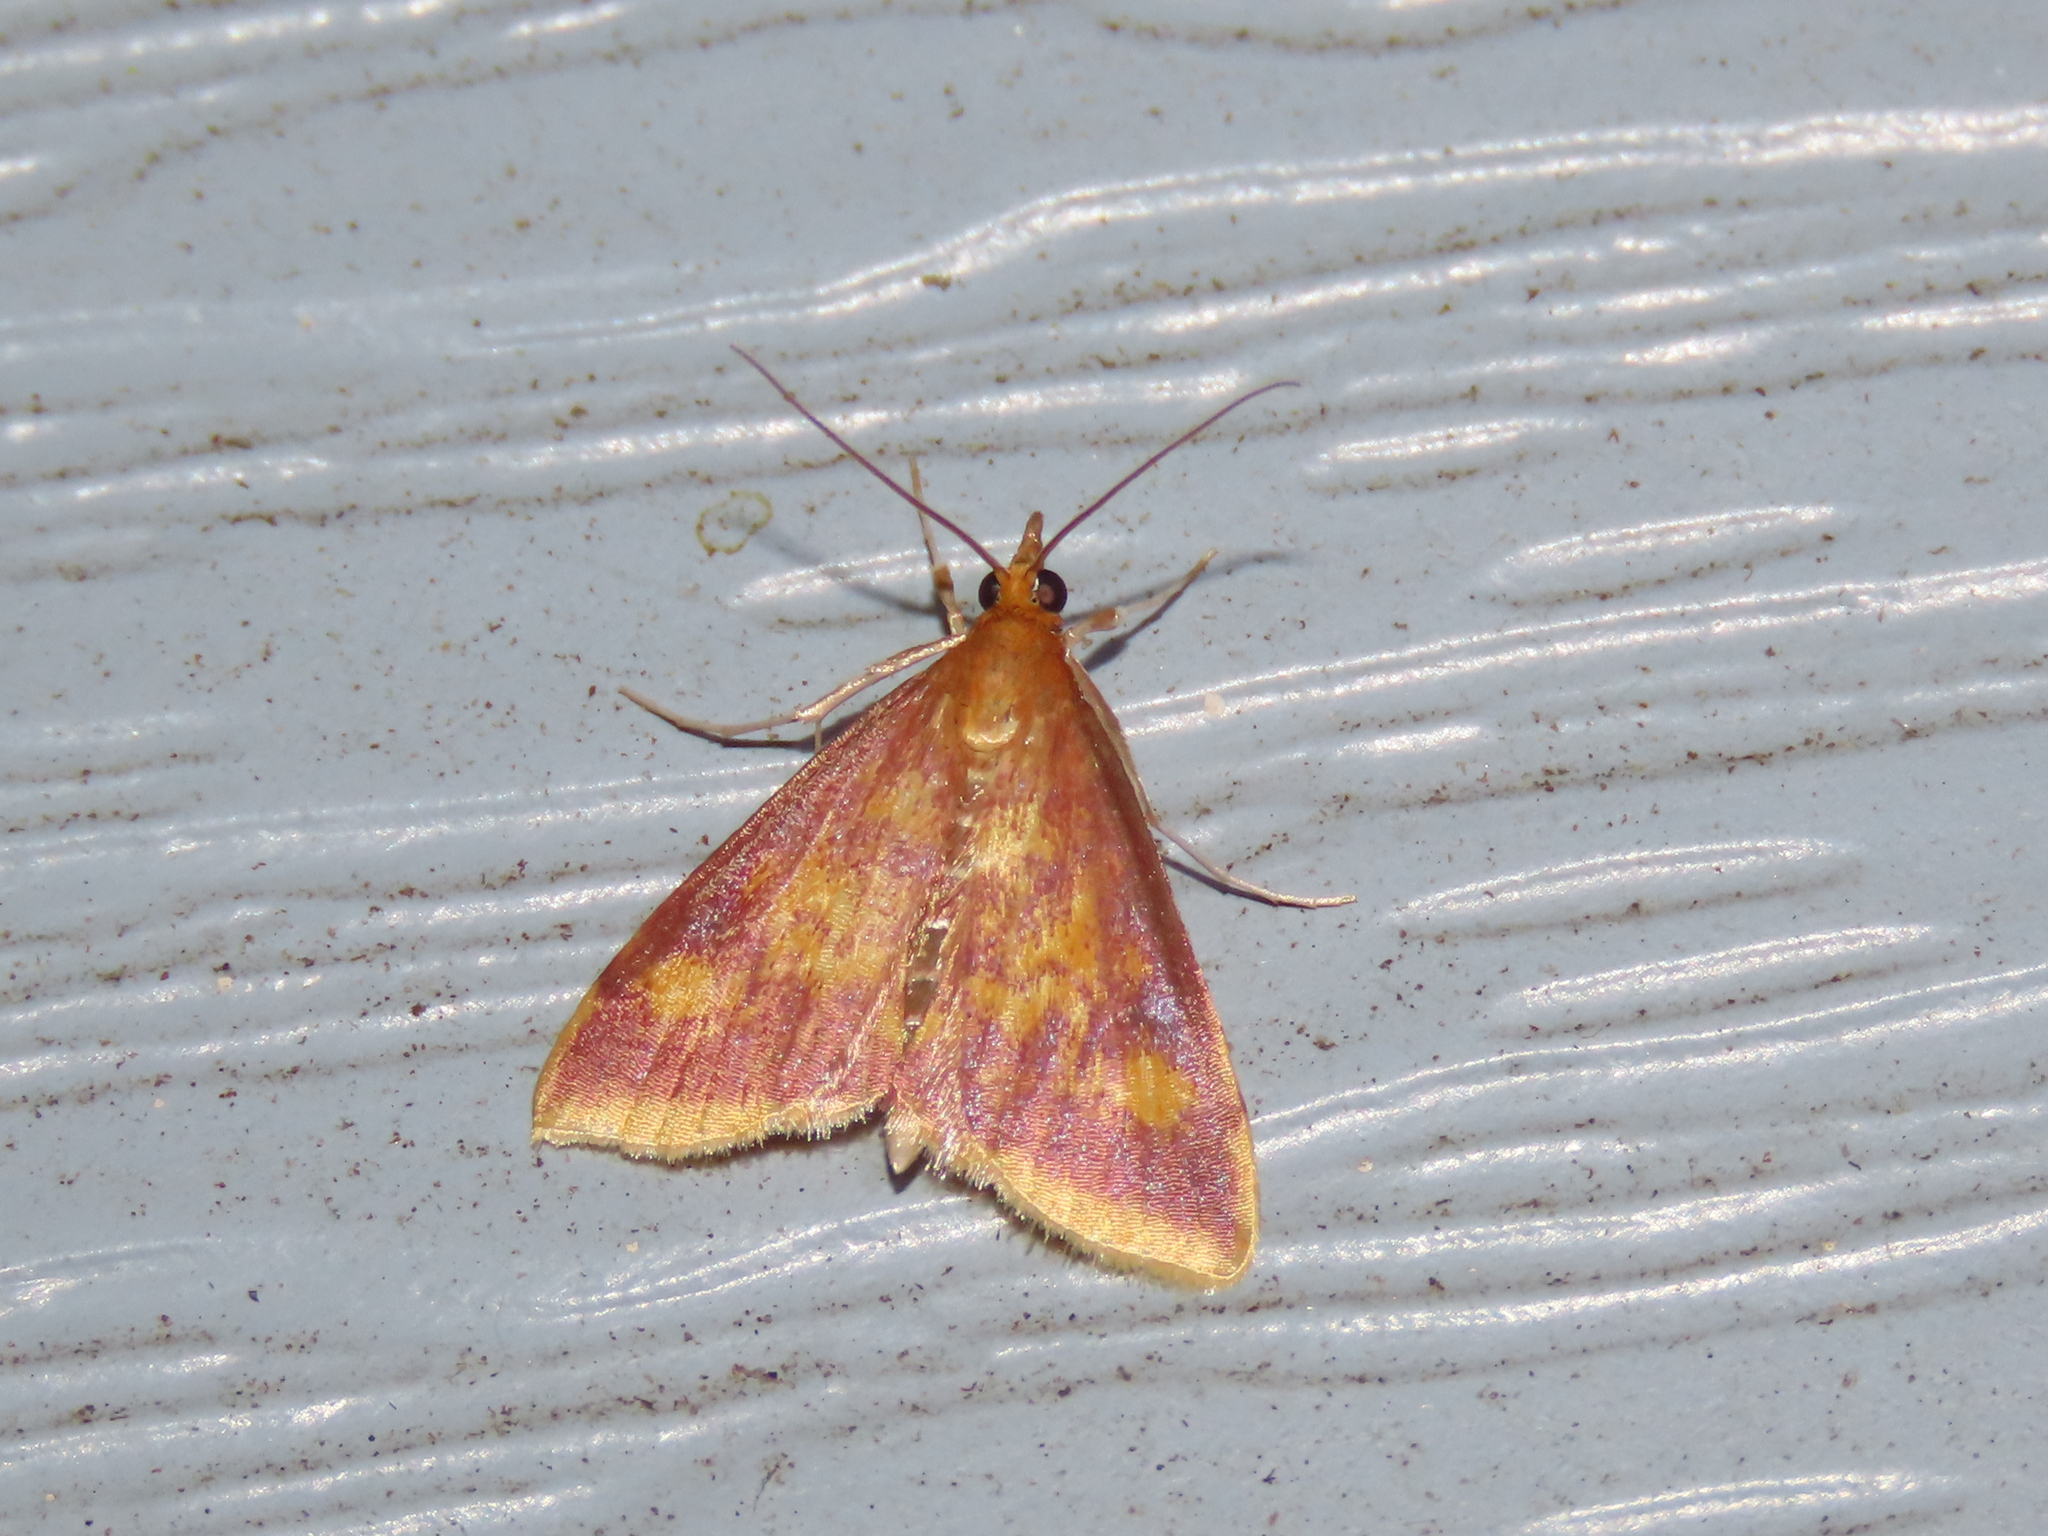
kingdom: Animalia
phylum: Arthropoda
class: Insecta
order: Lepidoptera
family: Crambidae
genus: Pyrausta
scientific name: Pyrausta acrionalis
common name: Mint-loving pyrausta moth
